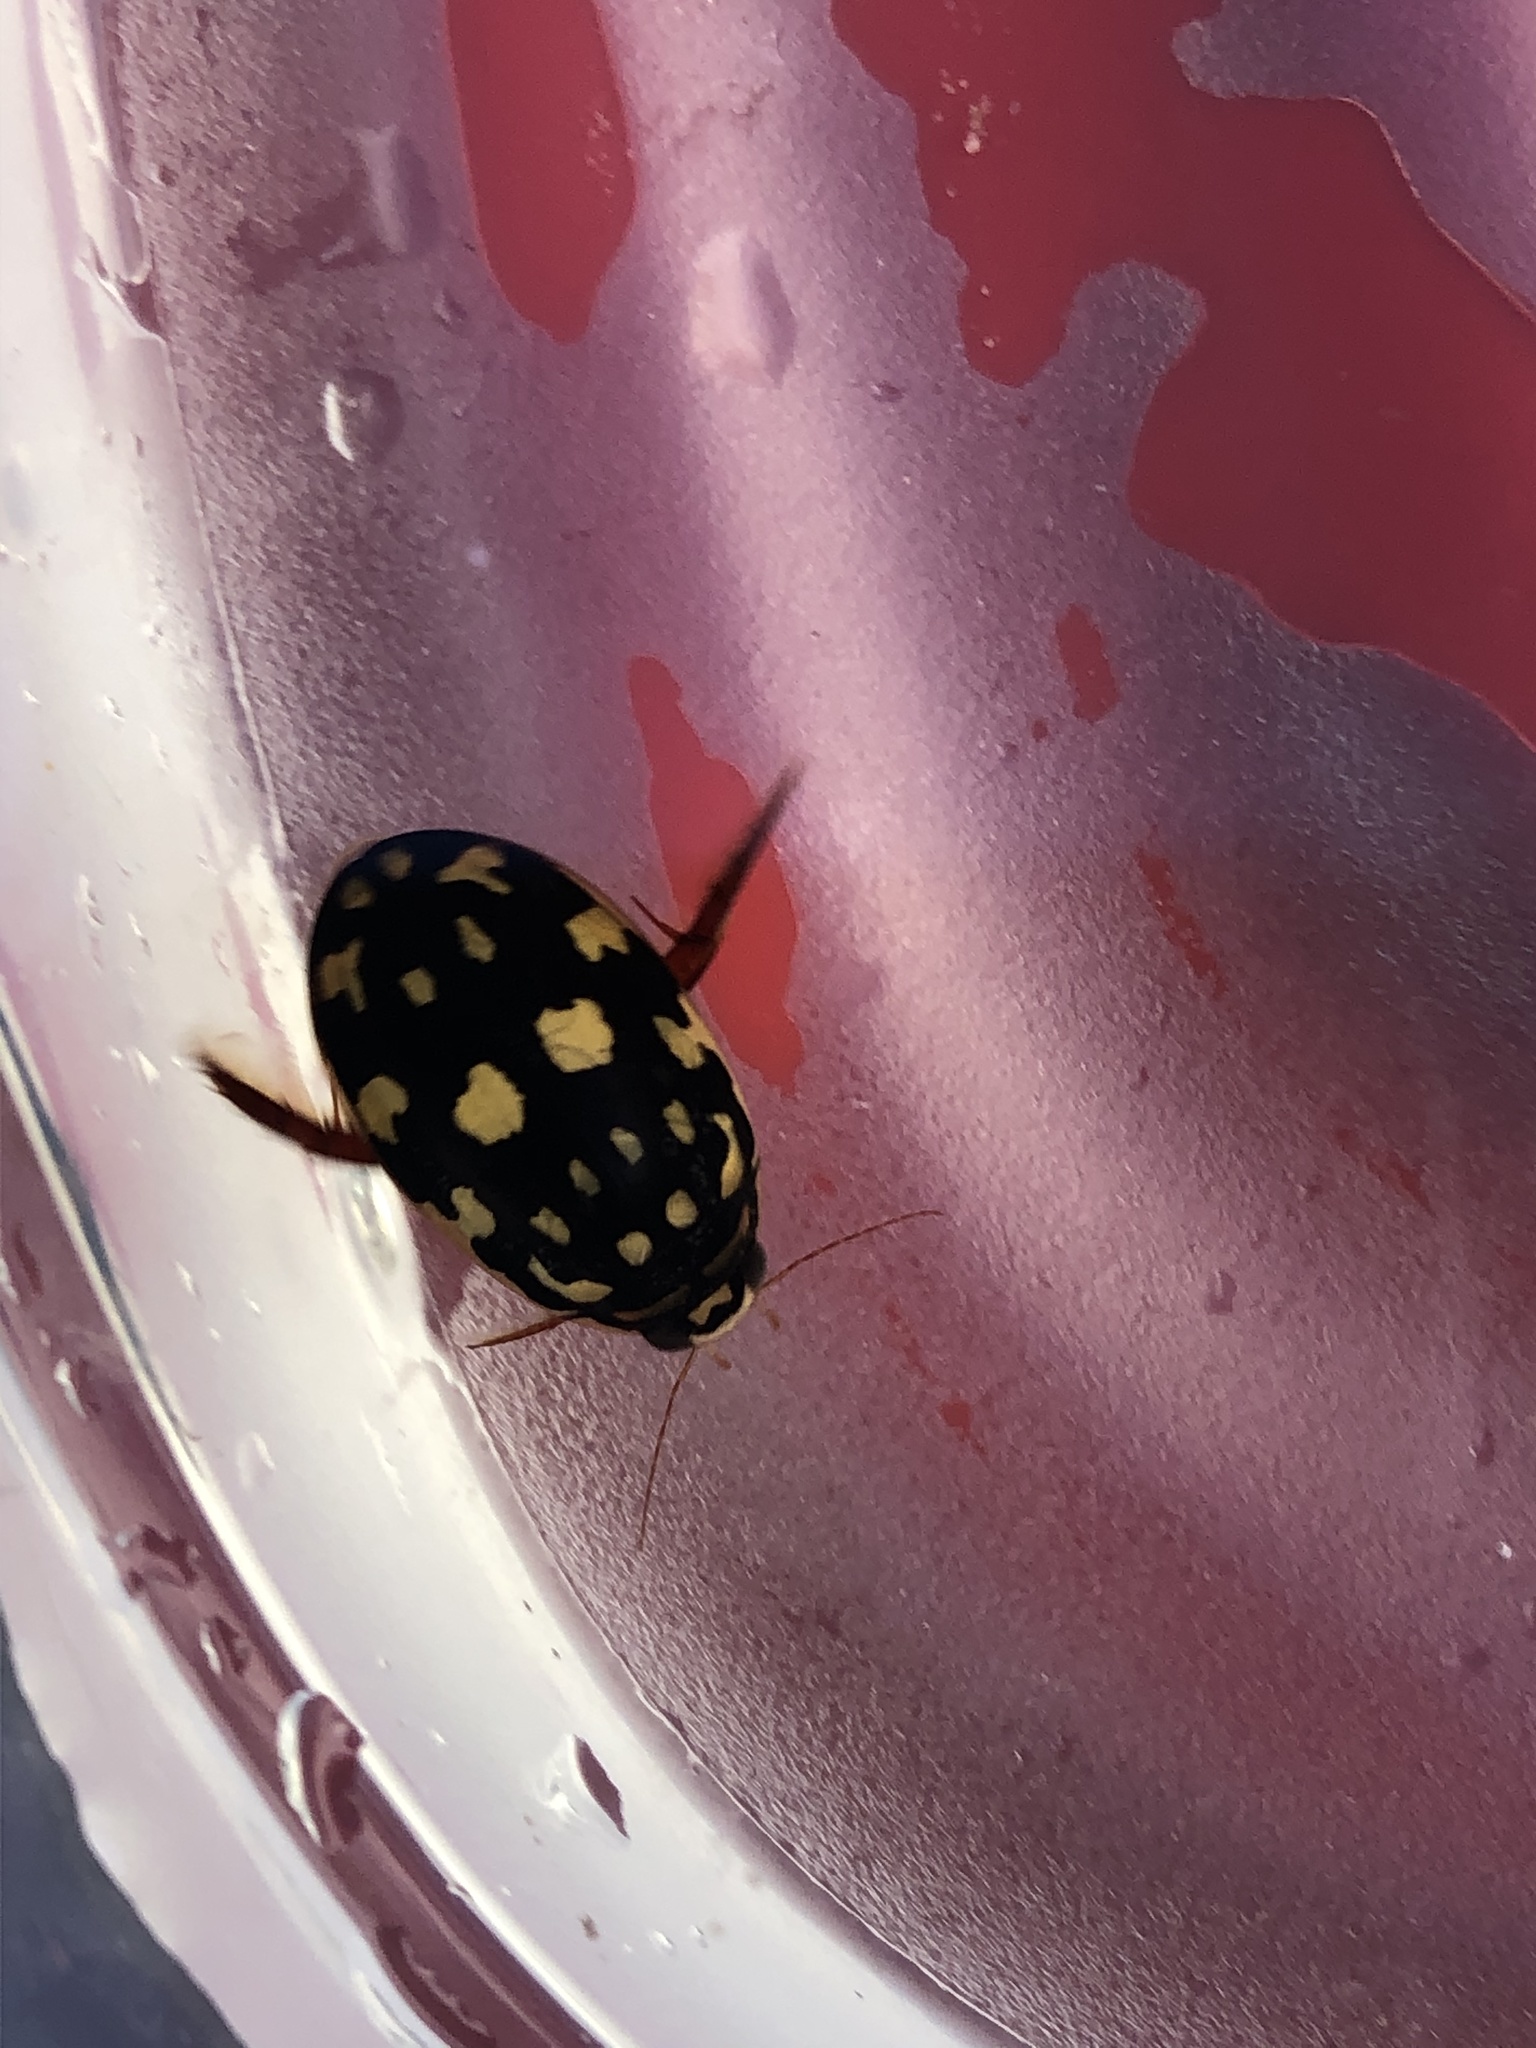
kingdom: Animalia
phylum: Arthropoda
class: Insecta
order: Coleoptera
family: Dytiscidae
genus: Thermonectus
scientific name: Thermonectus marmoratus
